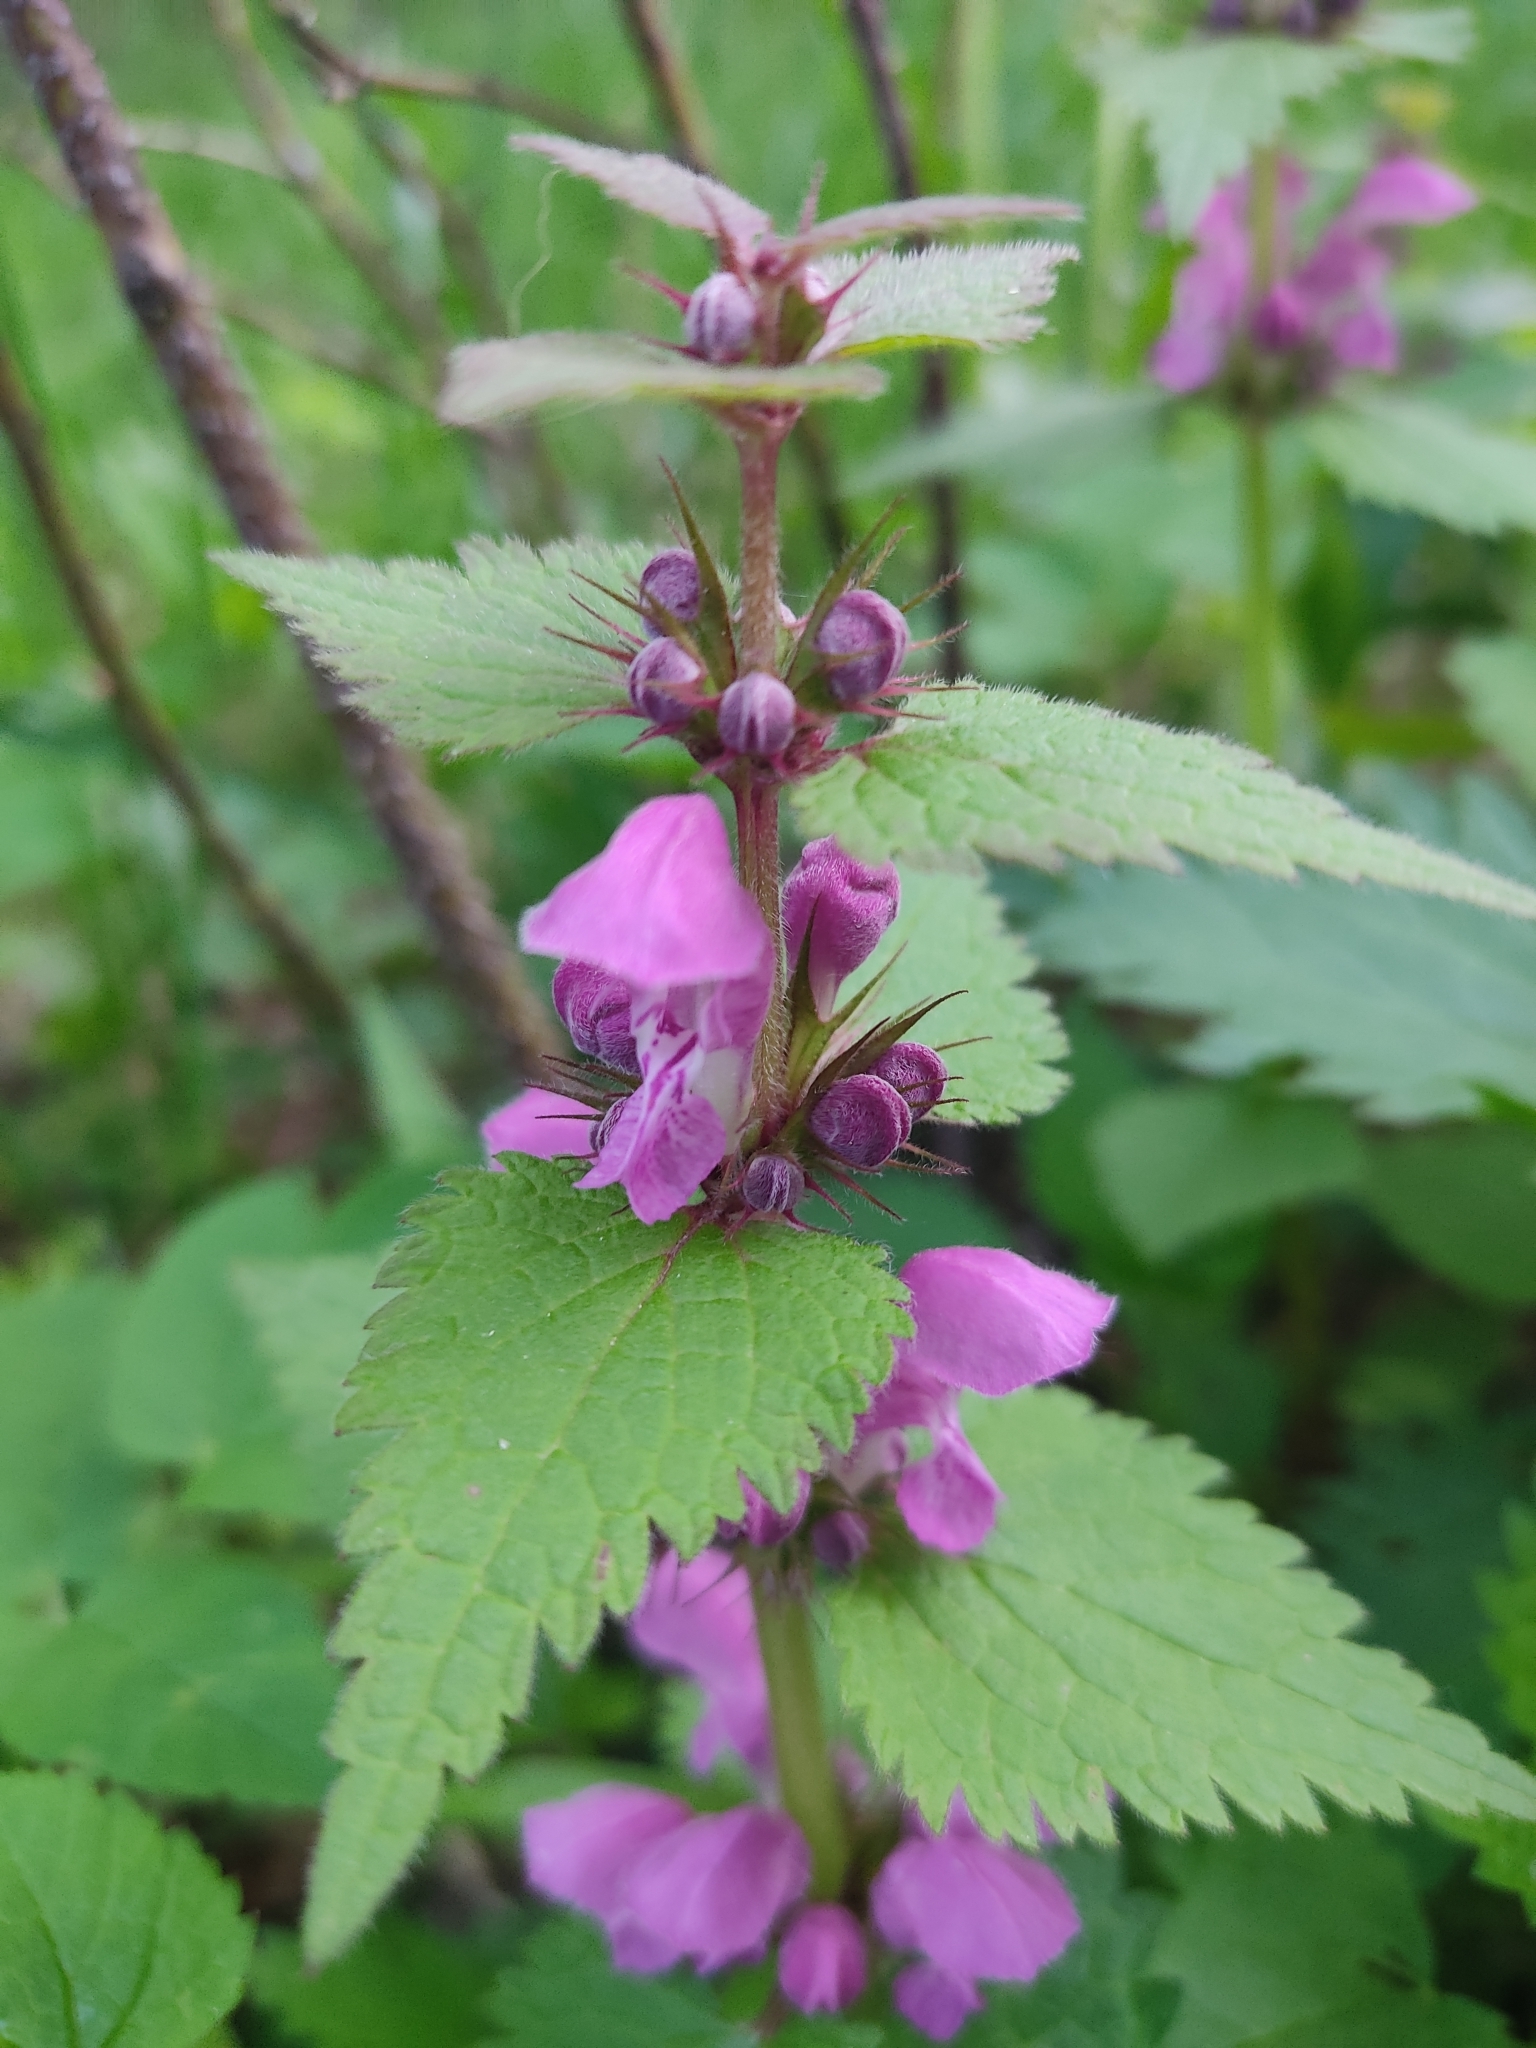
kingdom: Plantae
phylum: Tracheophyta
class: Magnoliopsida
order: Lamiales
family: Lamiaceae
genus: Lamium
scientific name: Lamium maculatum
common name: Spotted dead-nettle
